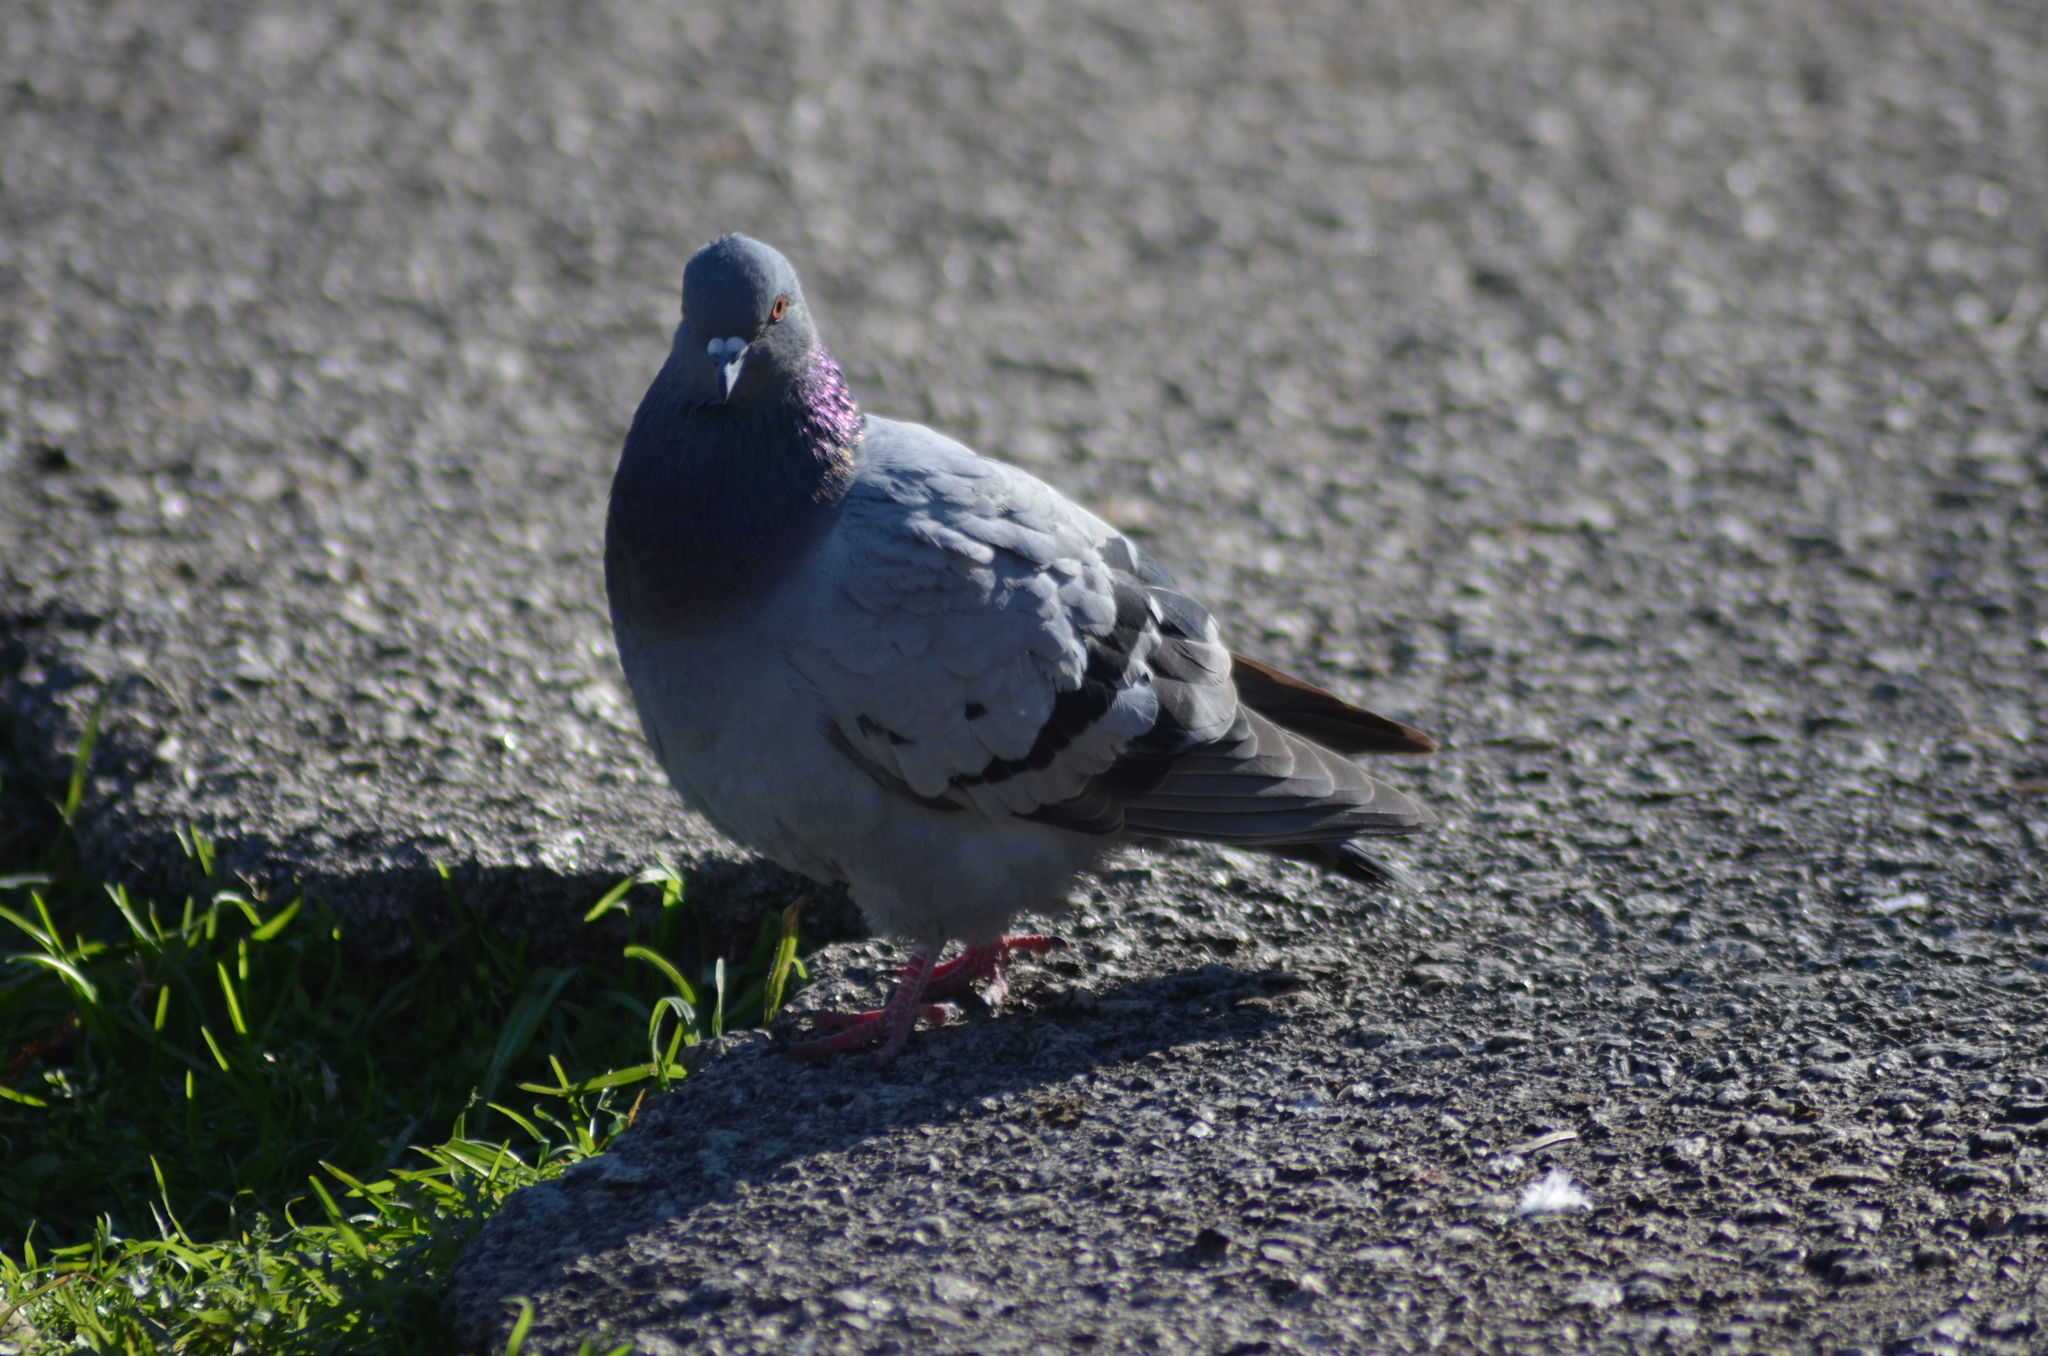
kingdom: Animalia
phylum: Chordata
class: Aves
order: Columbiformes
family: Columbidae
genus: Columba
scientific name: Columba livia
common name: Rock pigeon
